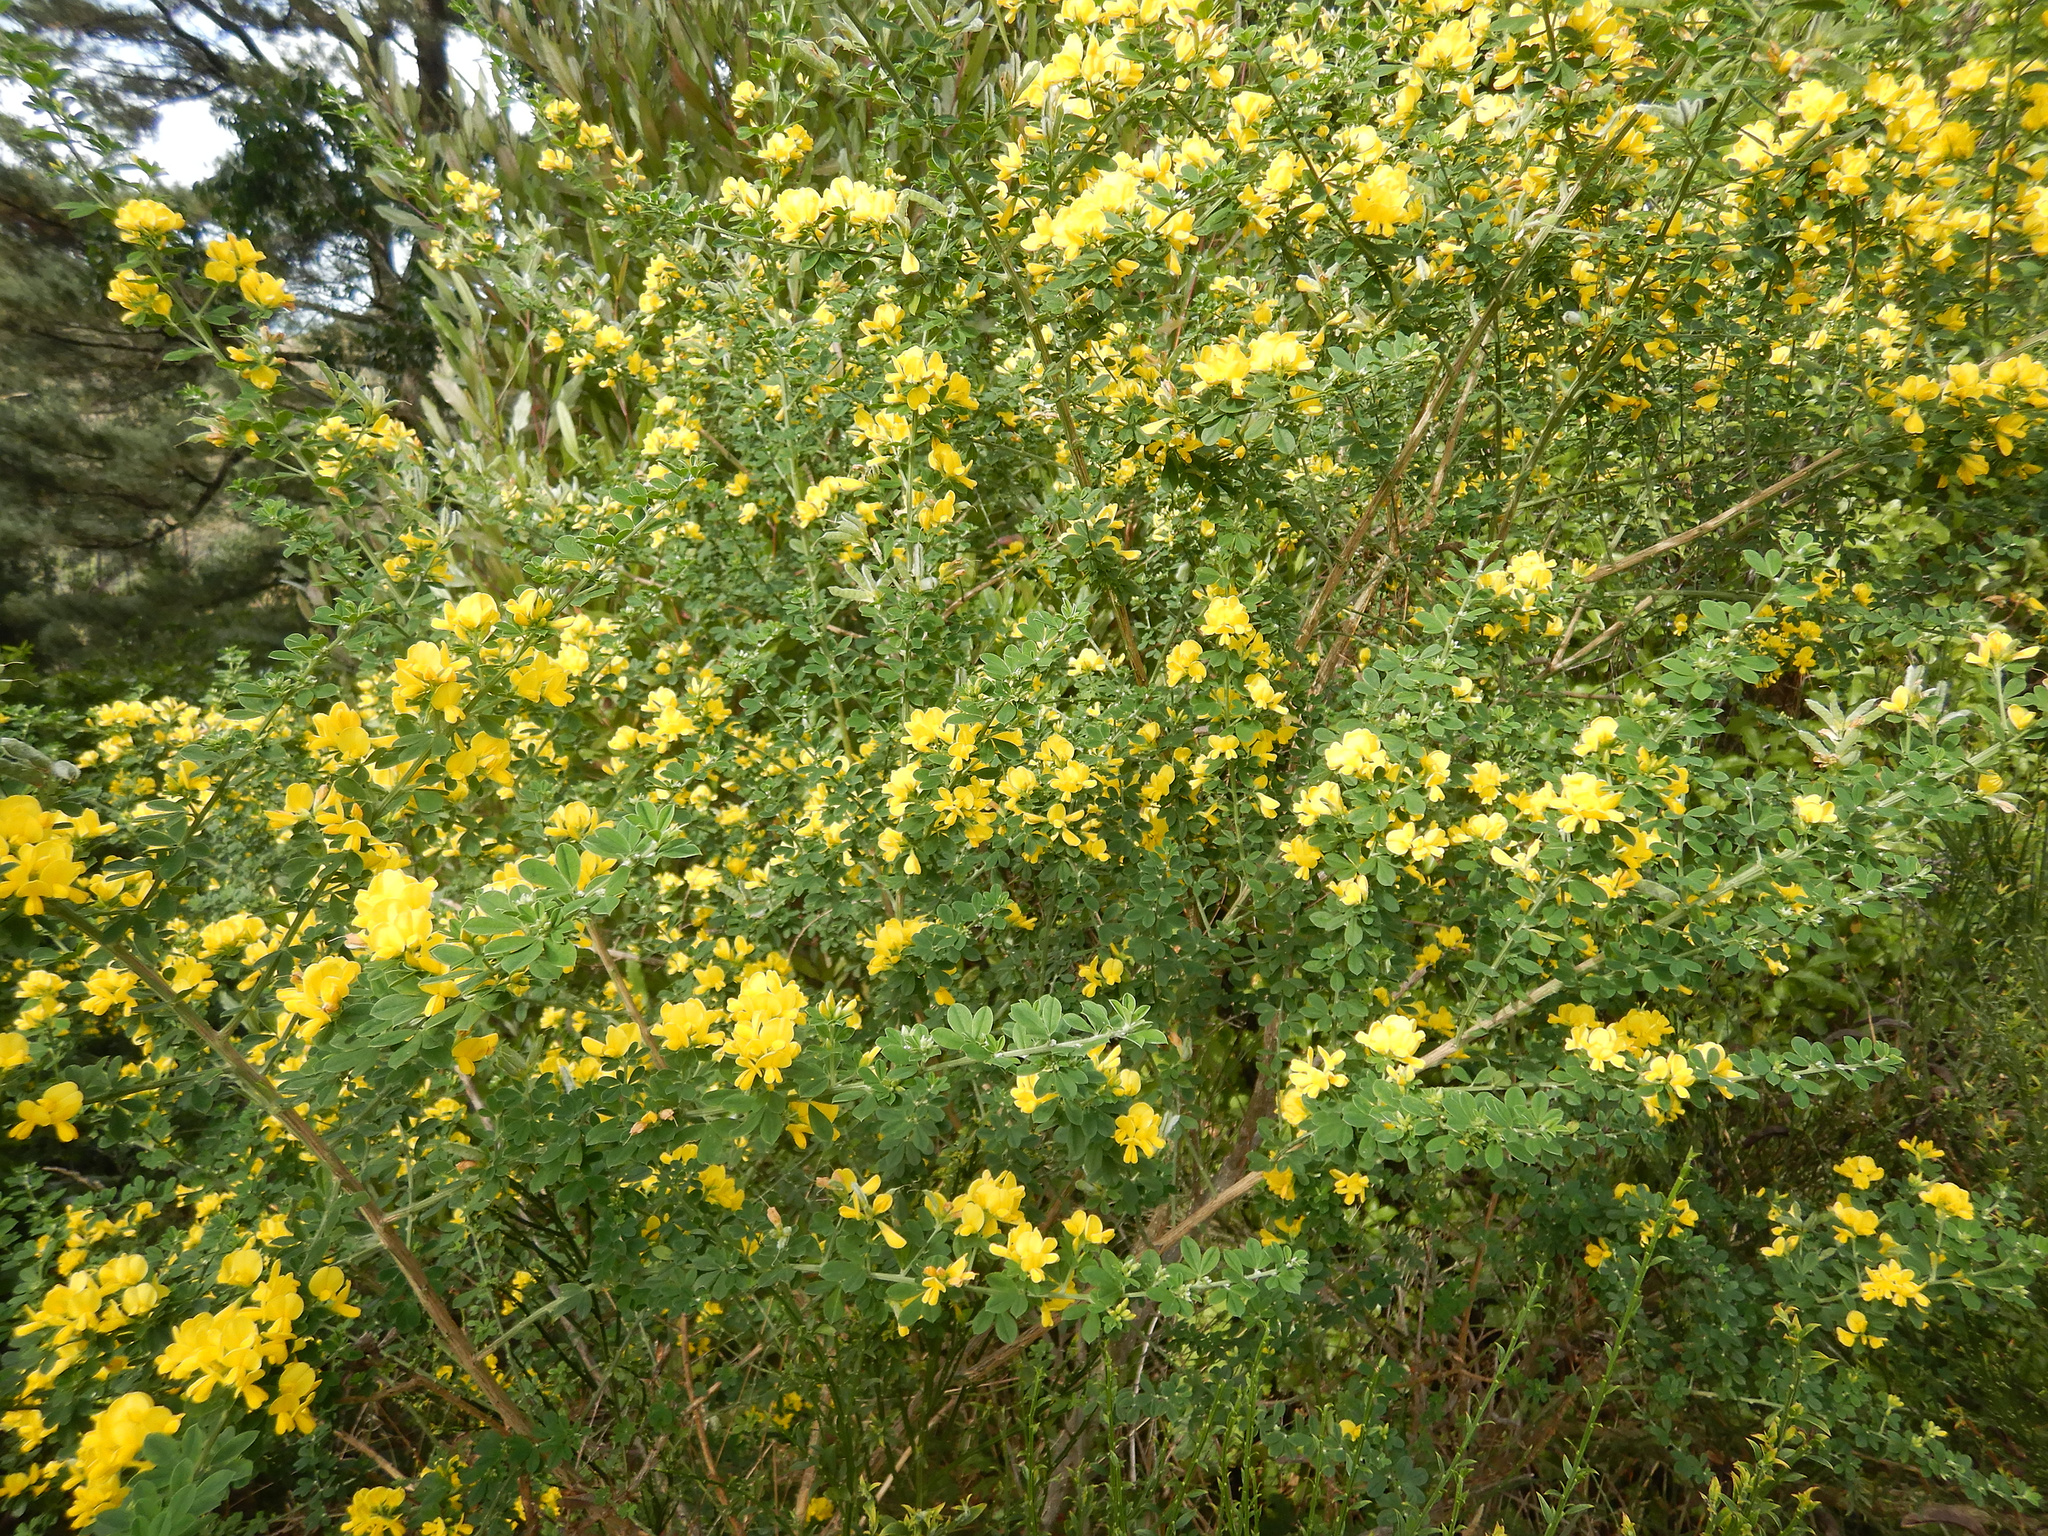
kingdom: Plantae
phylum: Tracheophyta
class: Magnoliopsida
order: Fabales
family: Fabaceae
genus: Genista
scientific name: Genista monspessulana
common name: Montpellier broom
